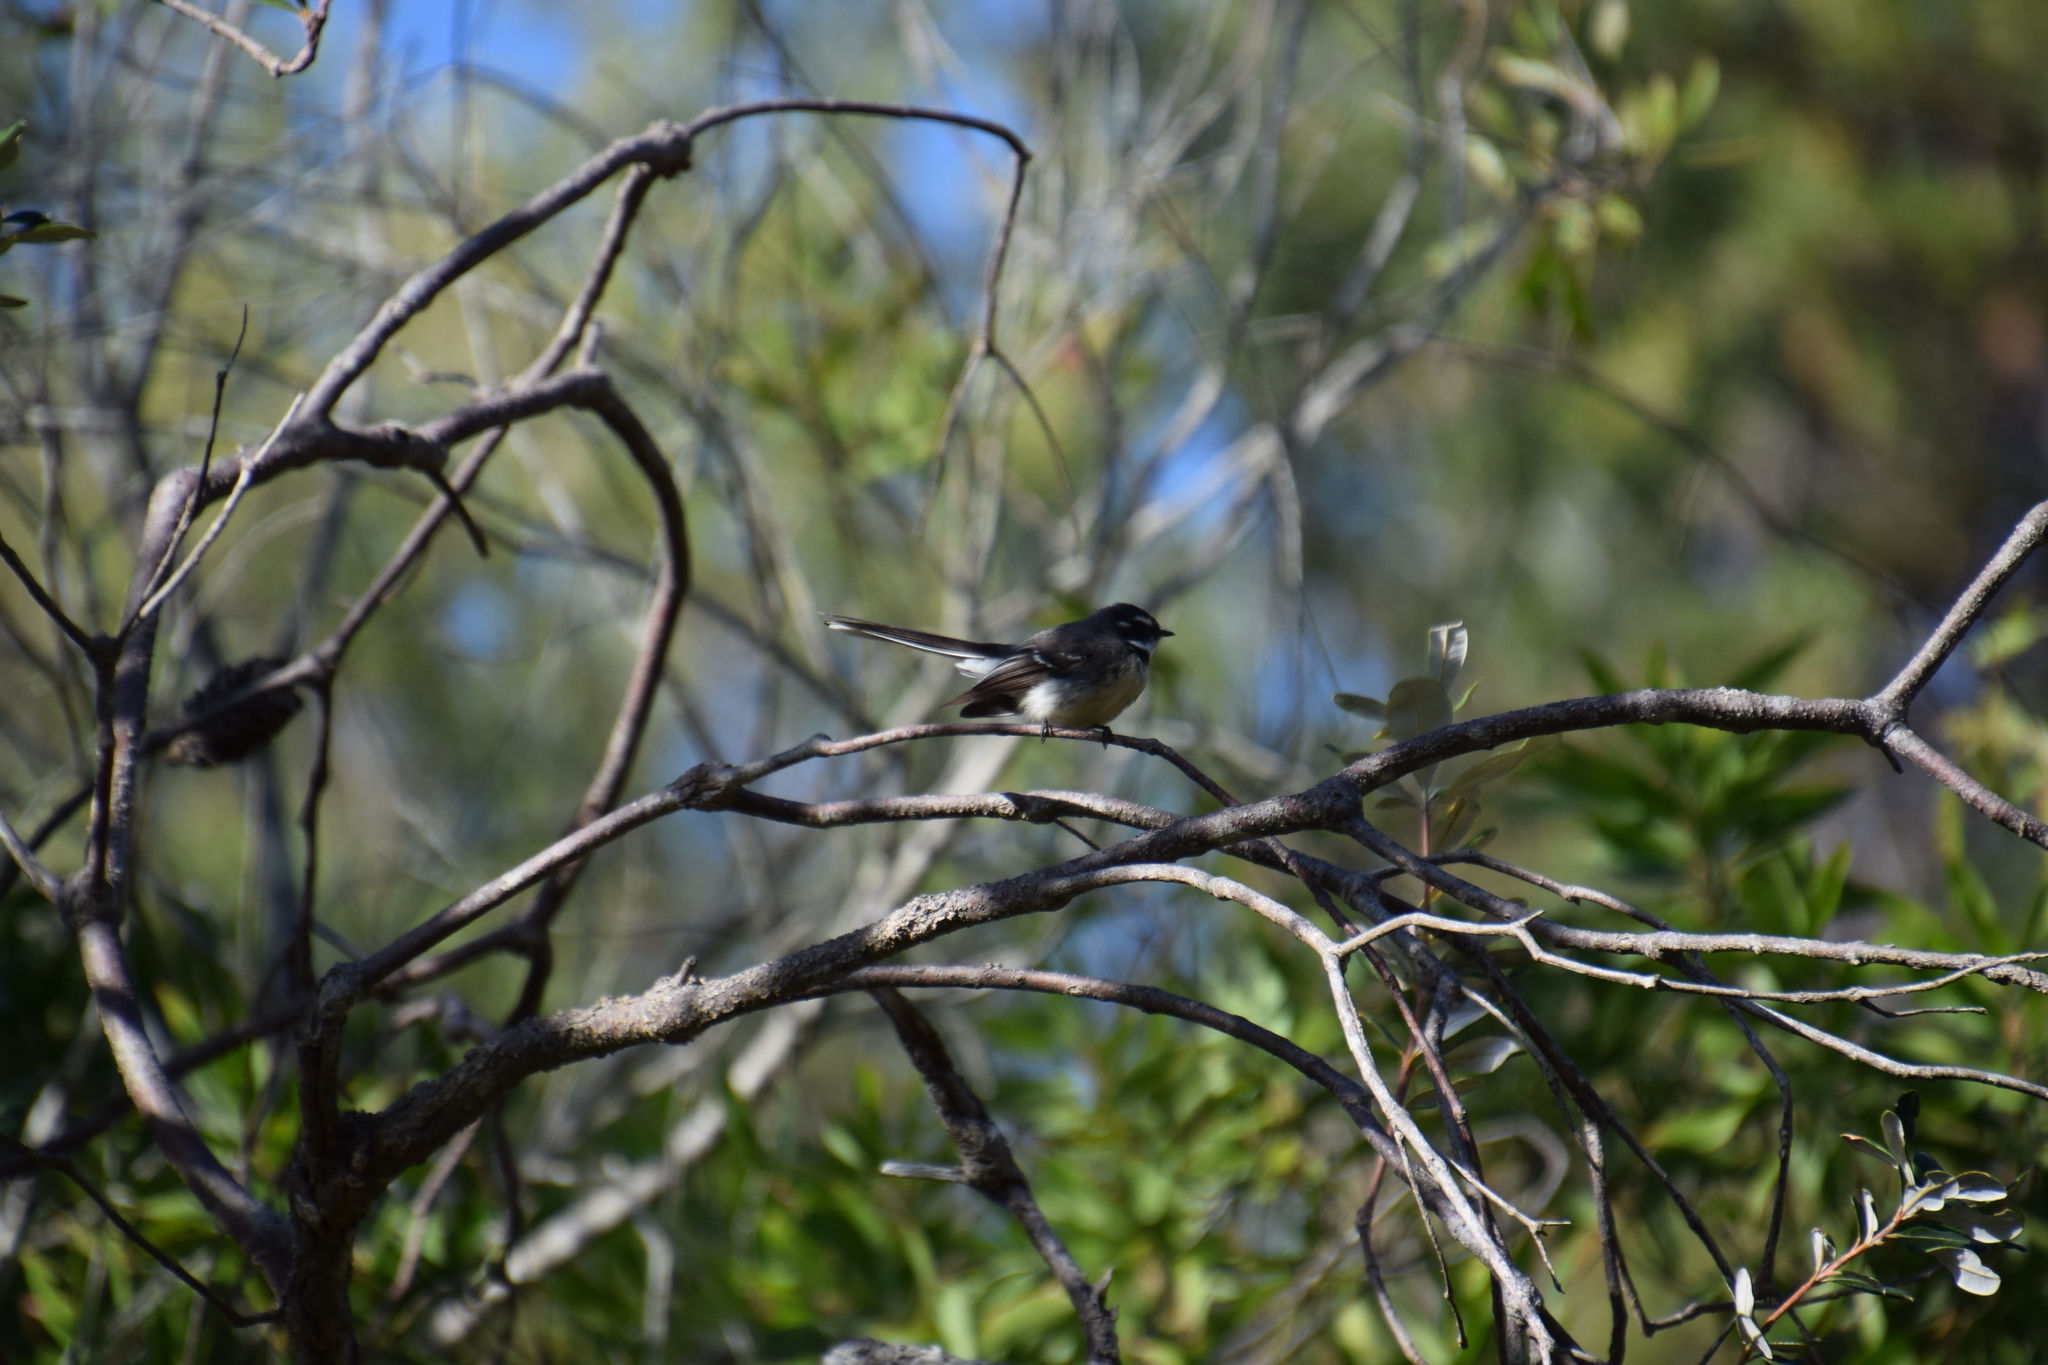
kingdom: Animalia
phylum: Chordata
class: Aves
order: Passeriformes
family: Rhipiduridae
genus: Rhipidura
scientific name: Rhipidura albiscapa
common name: Grey fantail
